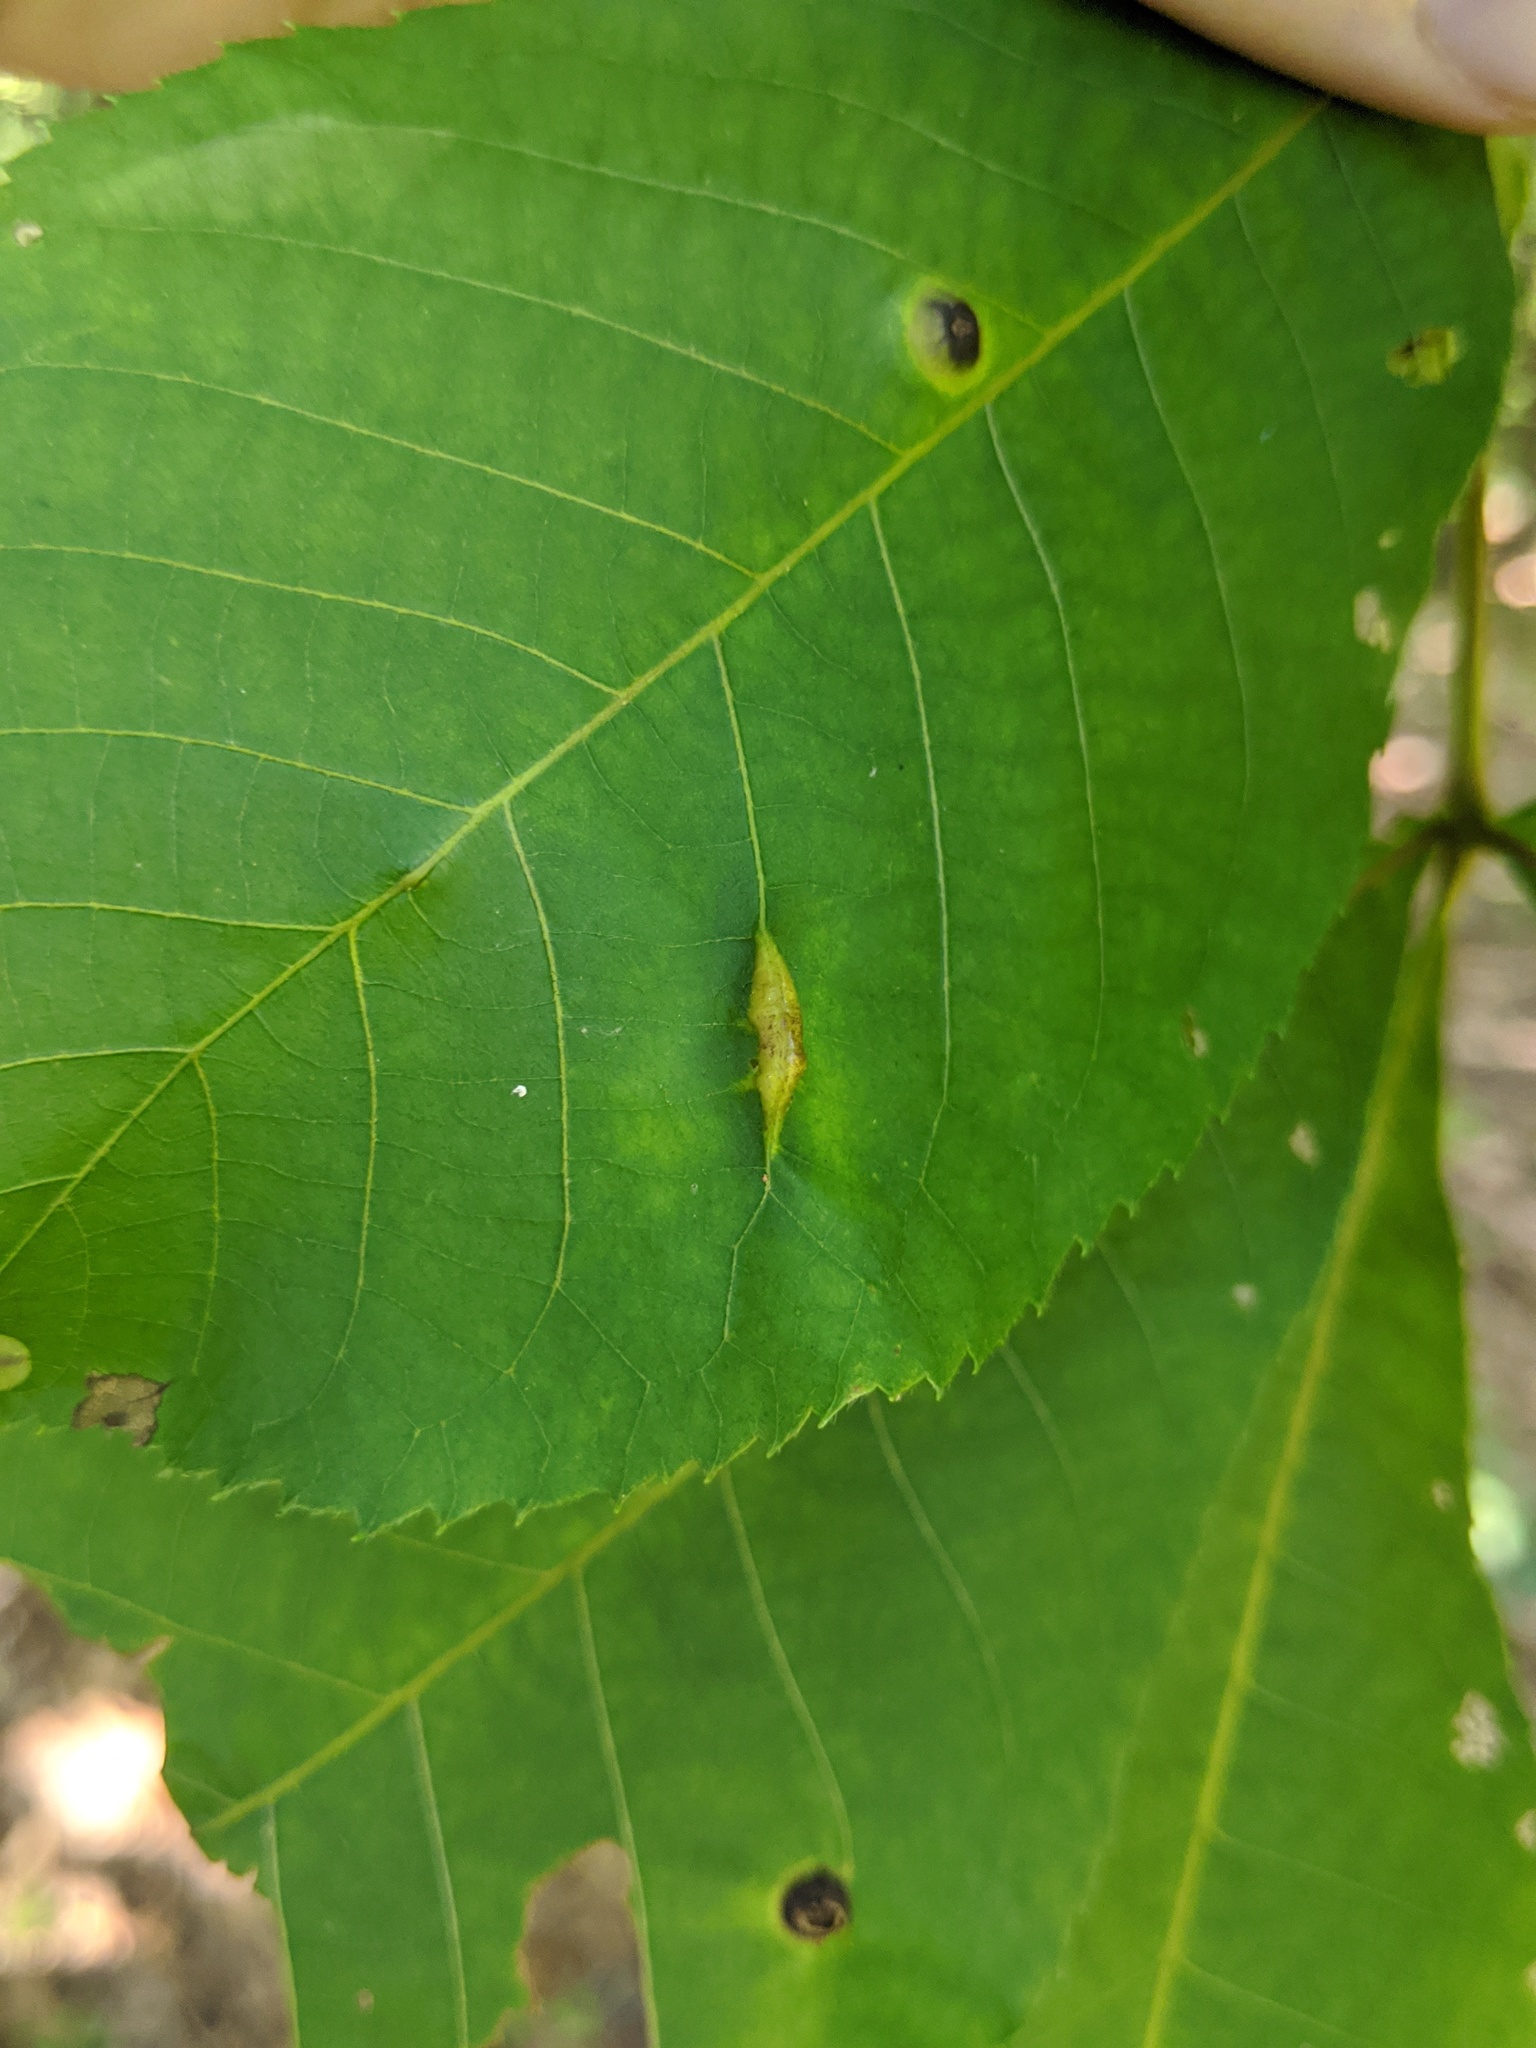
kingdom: Animalia
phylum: Arthropoda
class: Insecta
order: Hemiptera
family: Phylloxeridae
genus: Phylloxera
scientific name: Phylloxera caryaevenae
